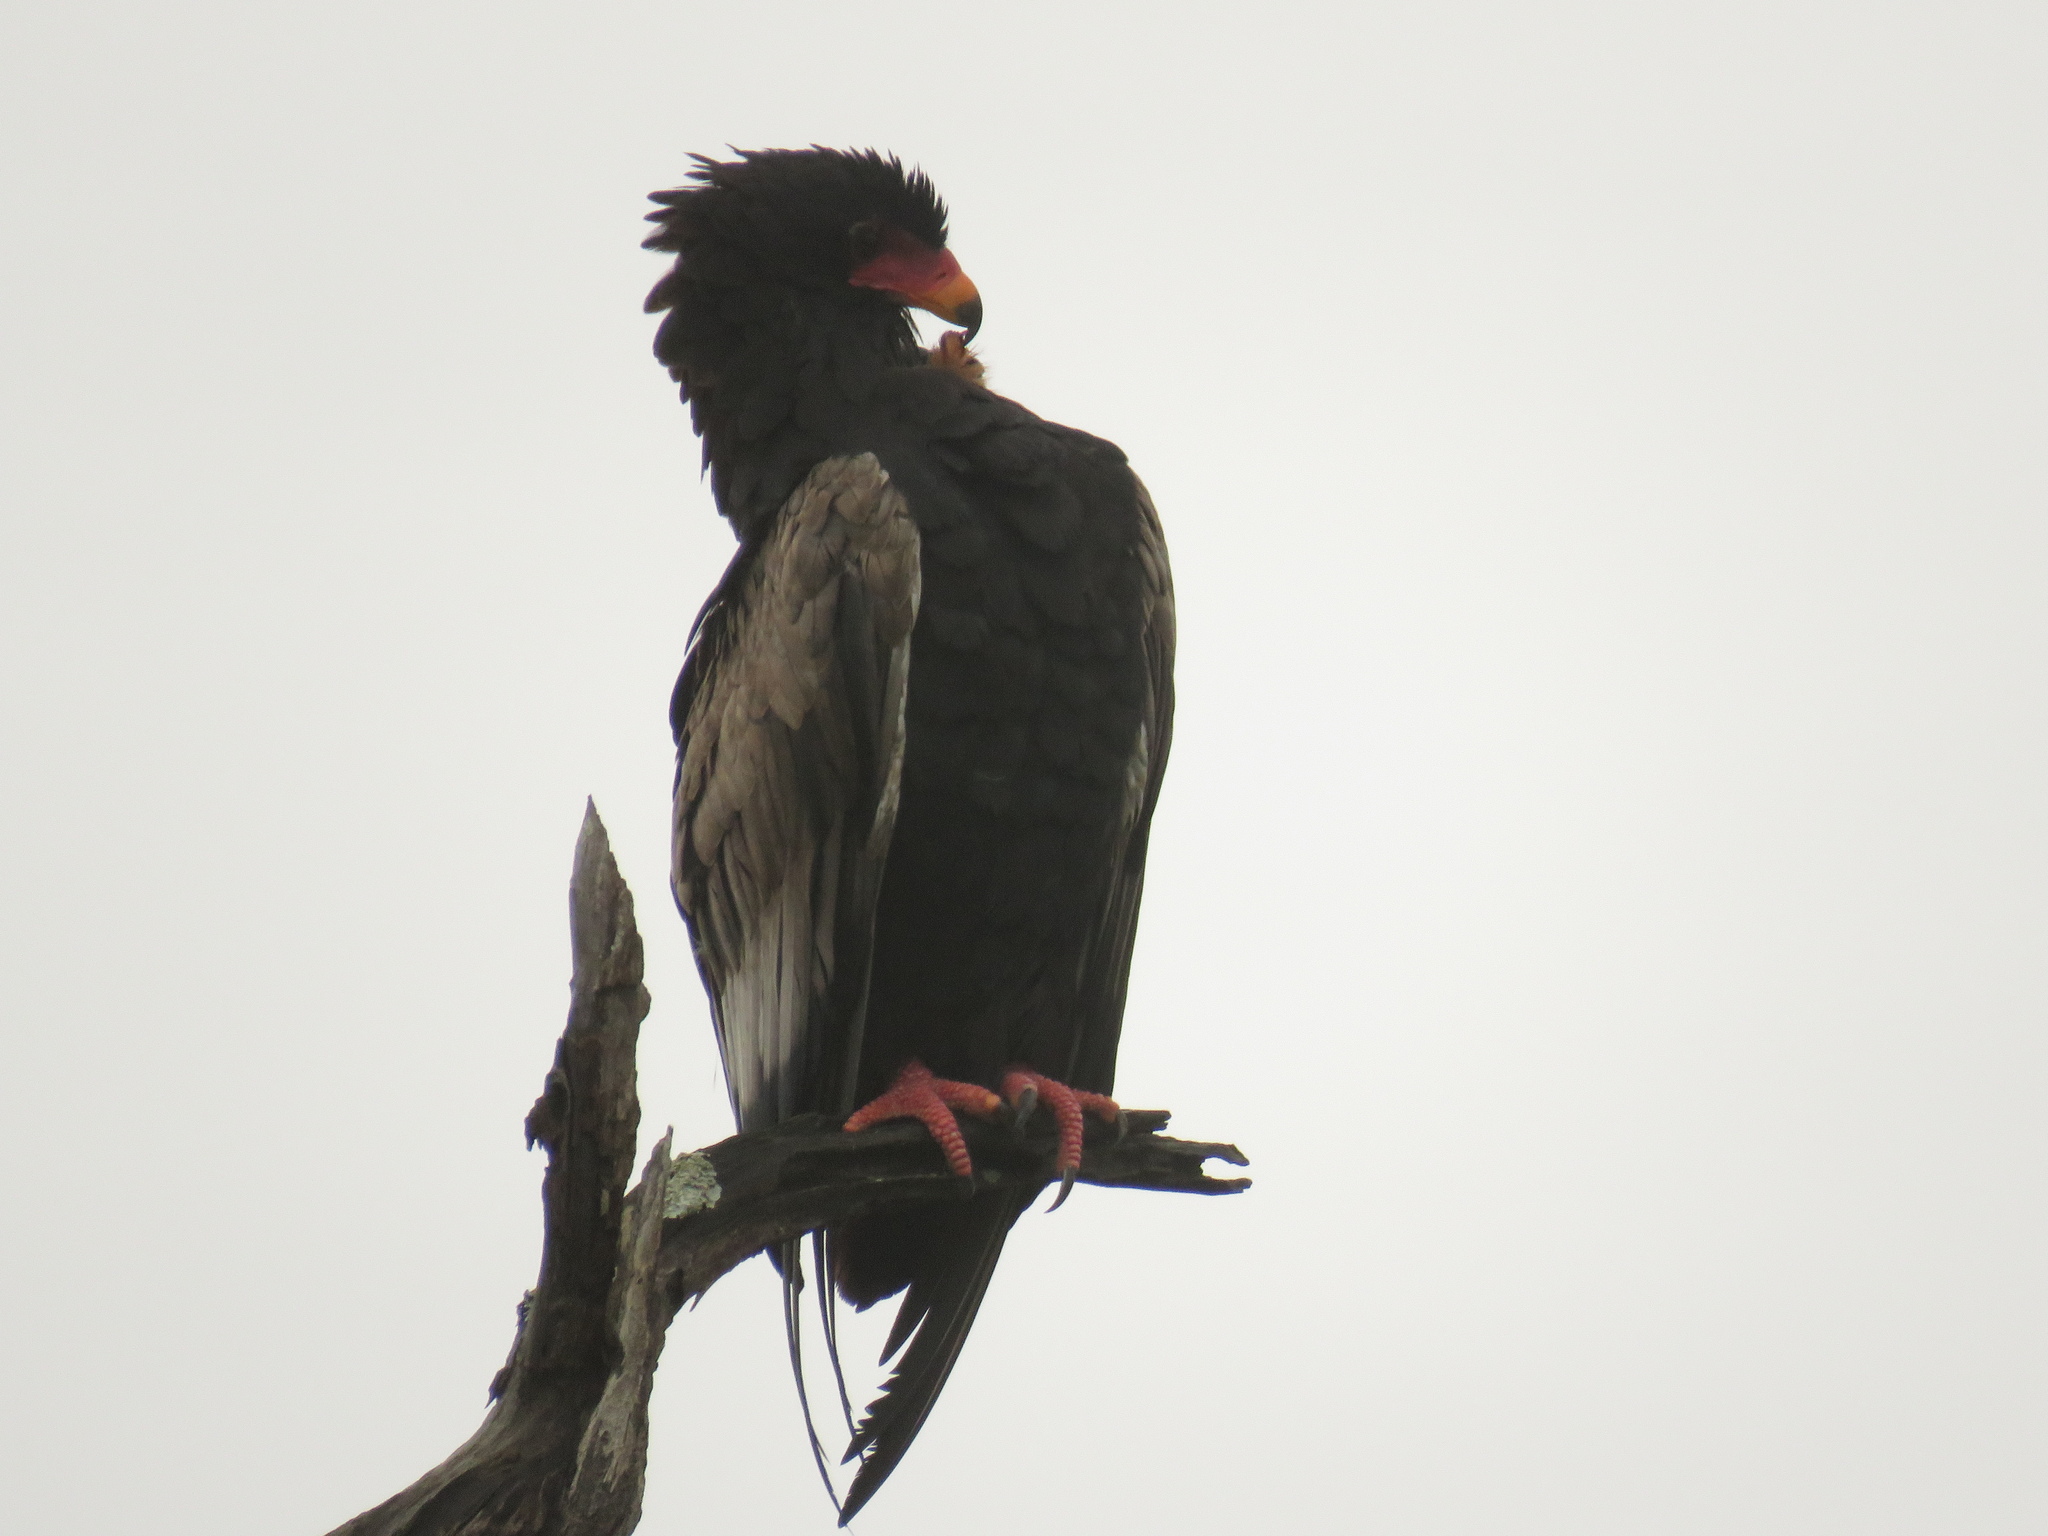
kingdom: Animalia
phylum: Chordata
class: Aves
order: Accipitriformes
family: Accipitridae
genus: Terathopius
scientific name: Terathopius ecaudatus
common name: Bateleur
